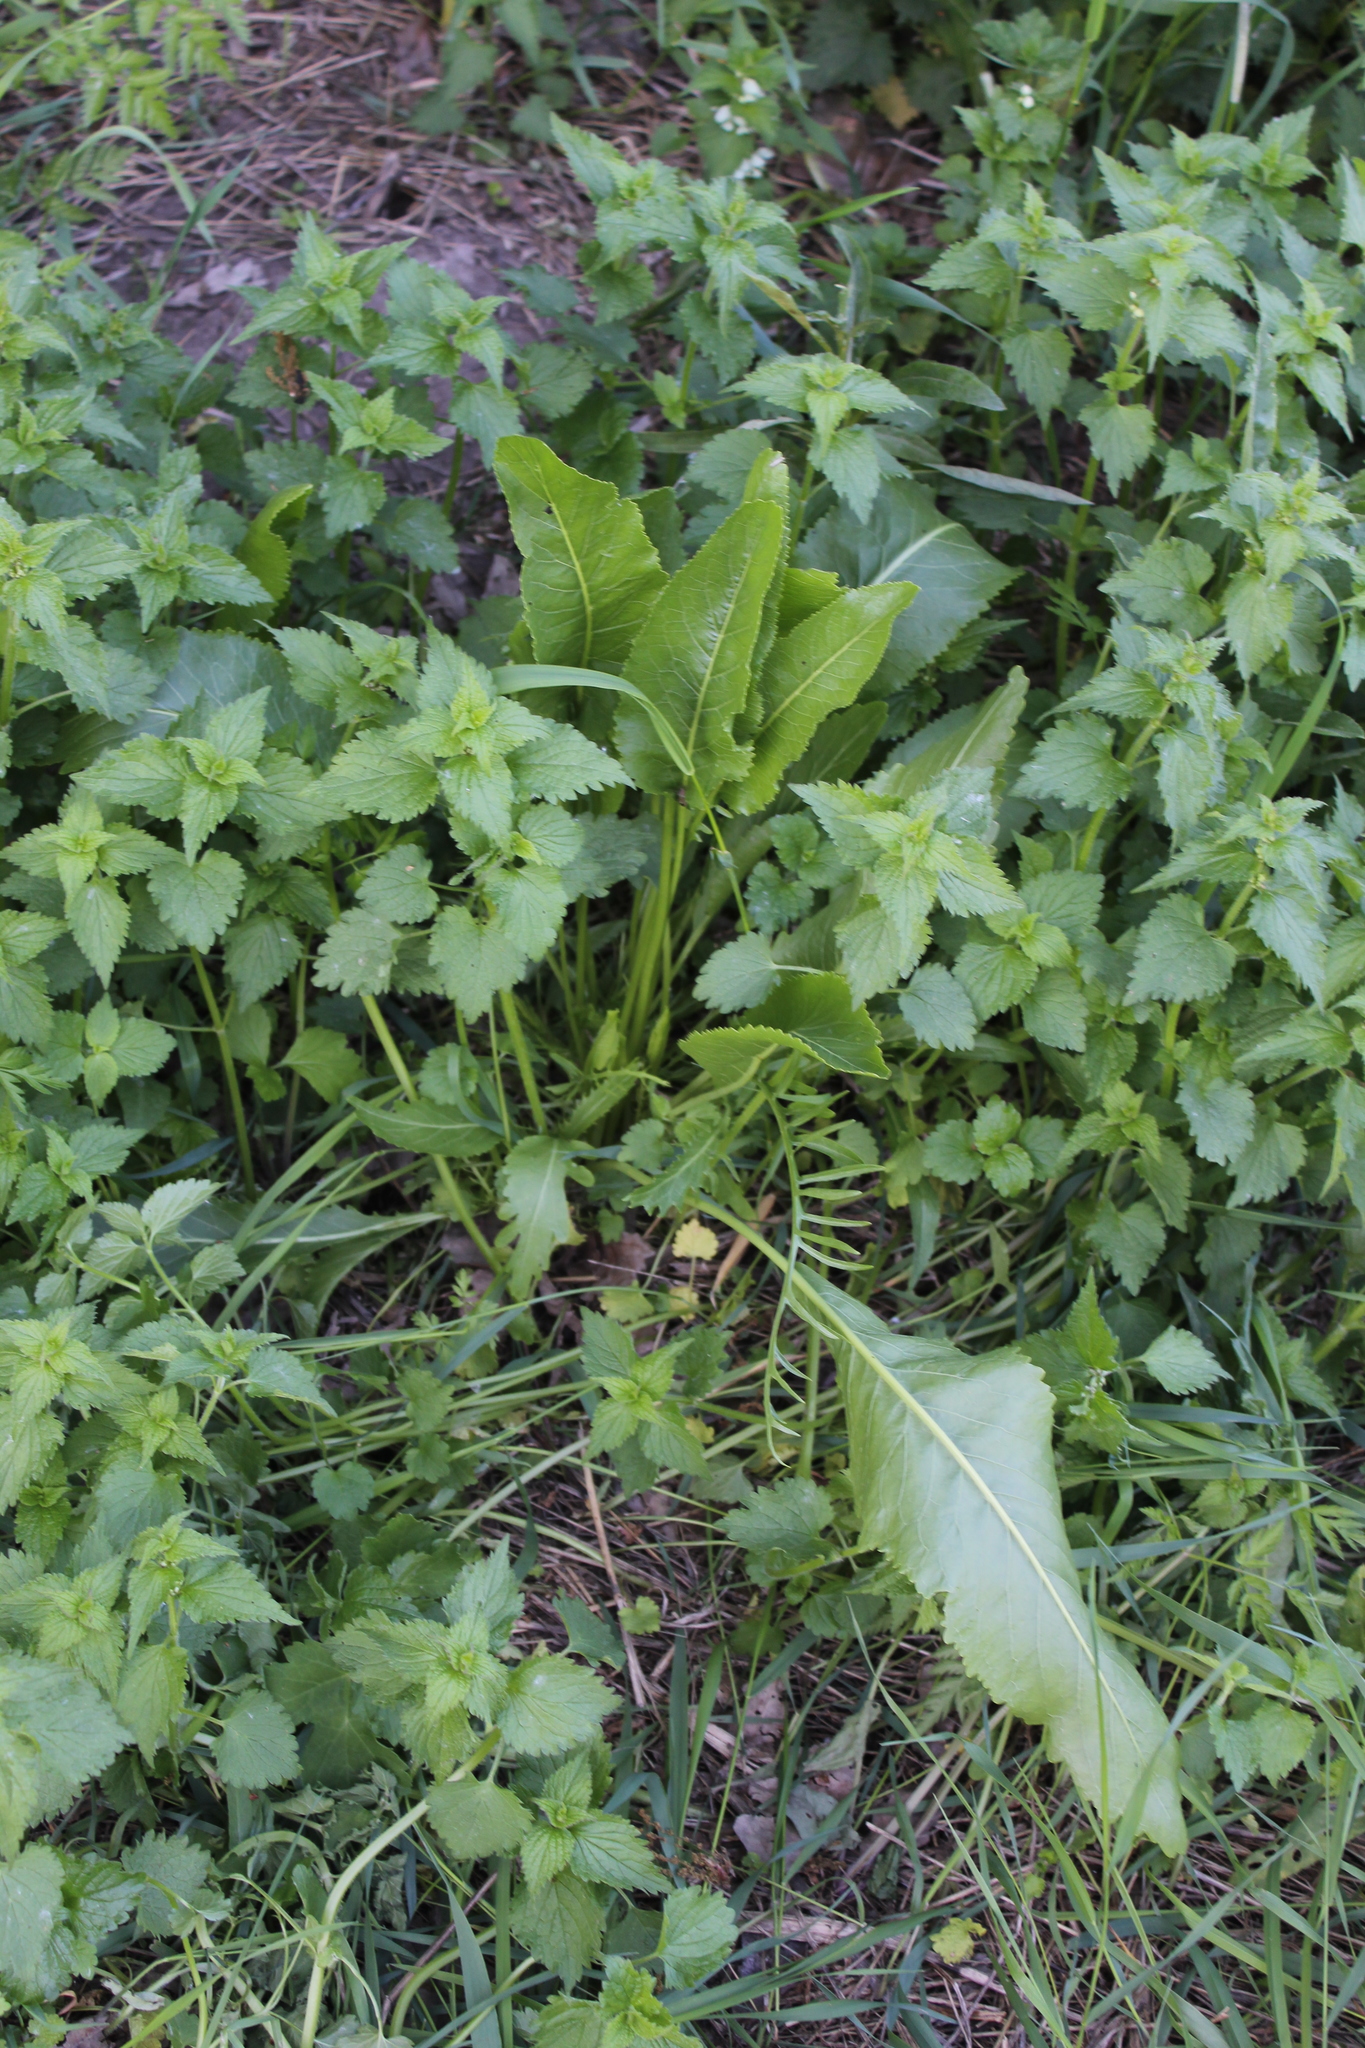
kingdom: Plantae
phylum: Tracheophyta
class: Magnoliopsida
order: Brassicales
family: Brassicaceae
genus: Armoracia
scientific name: Armoracia rusticana
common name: Horseradish
